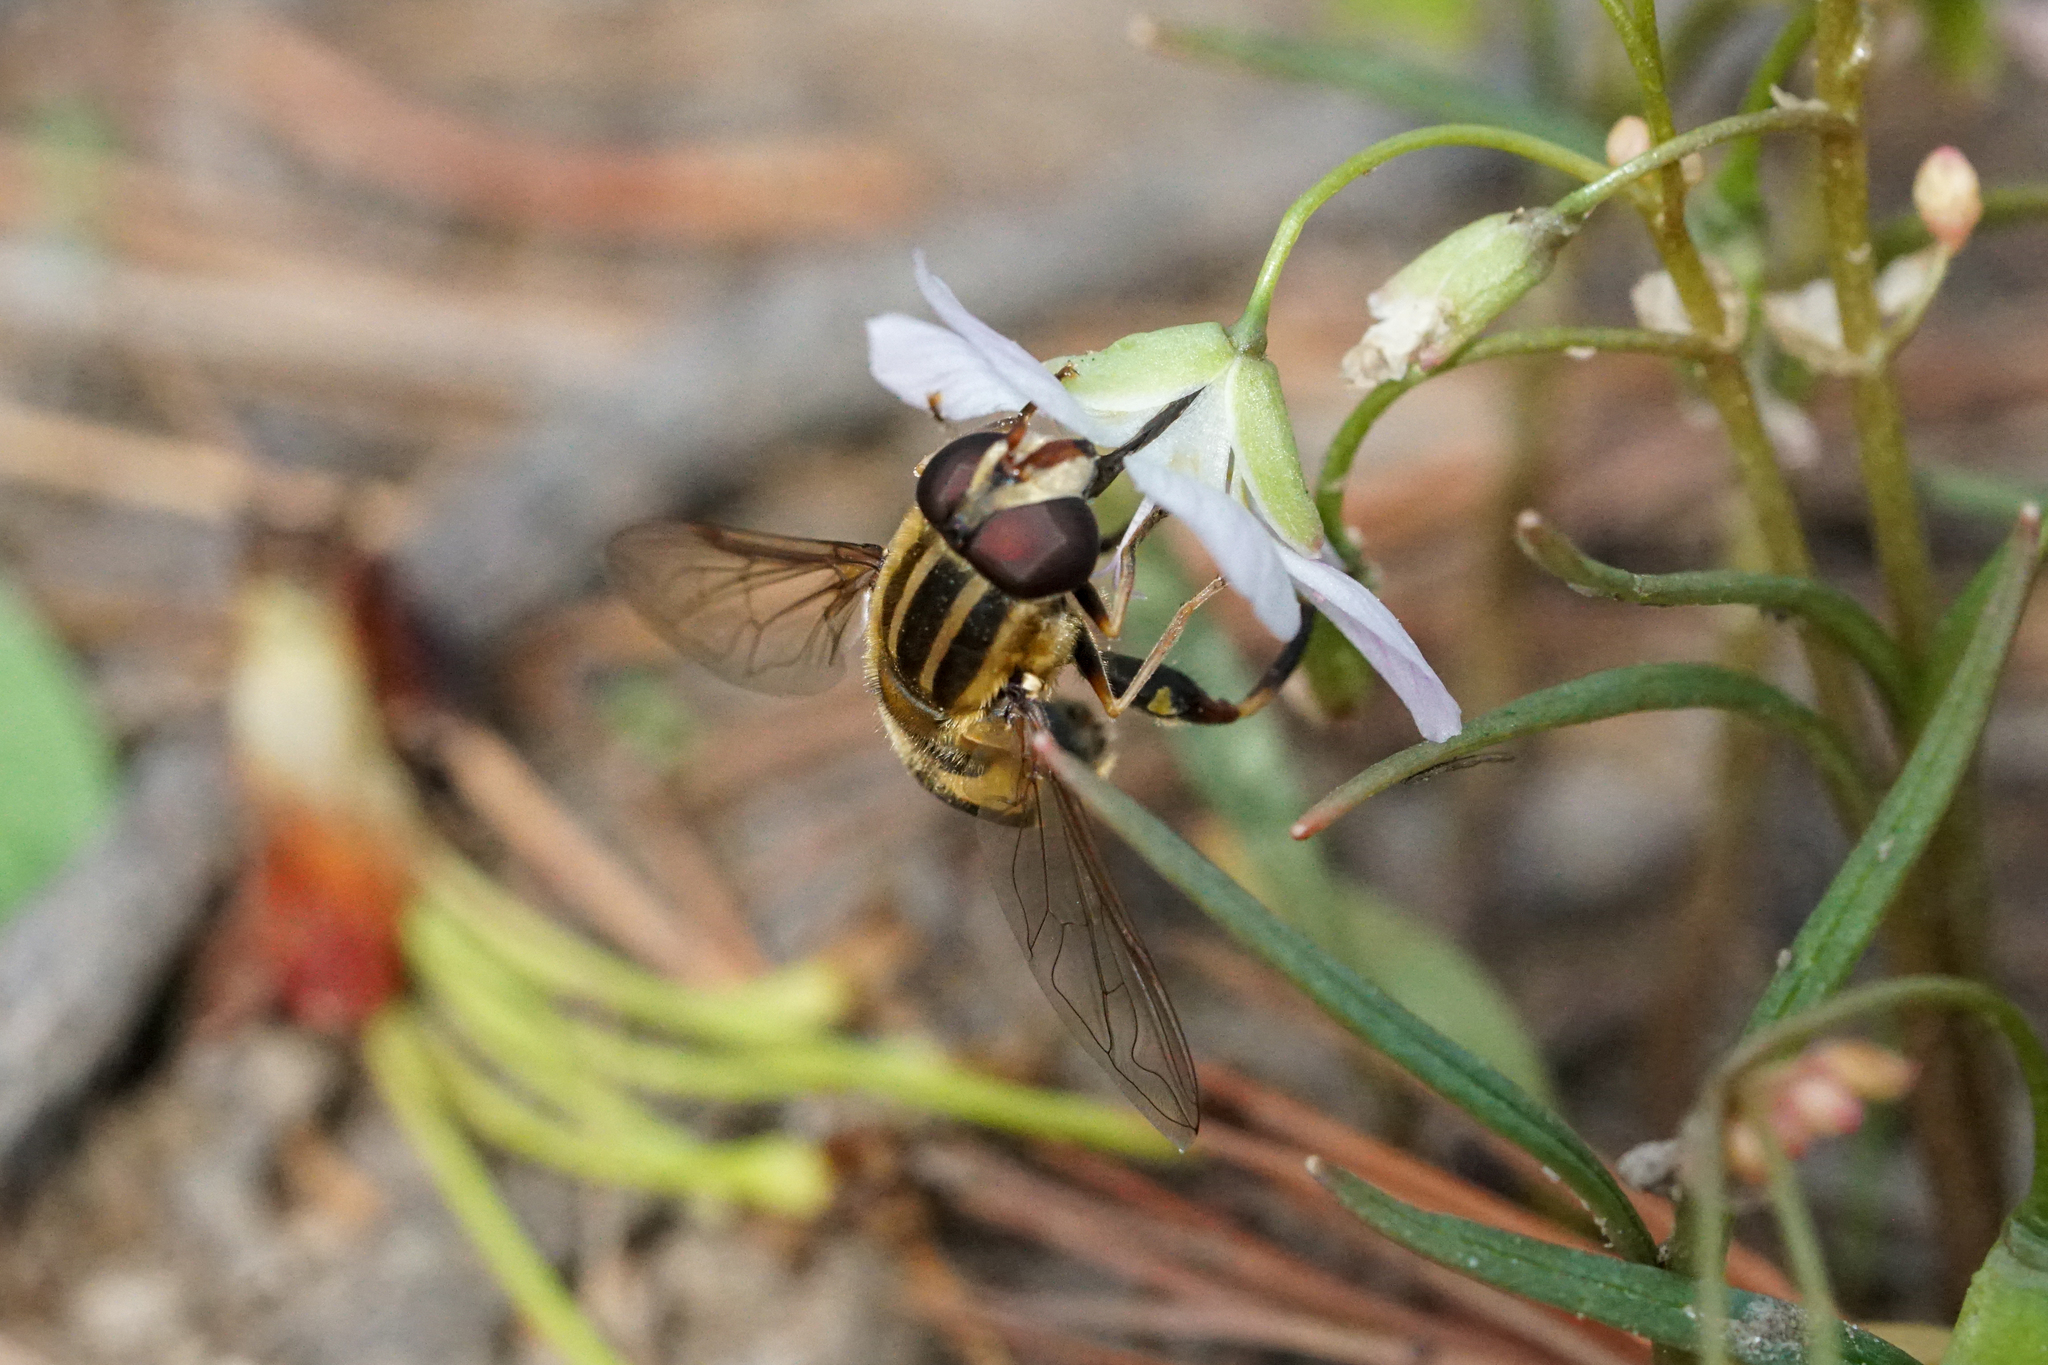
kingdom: Animalia
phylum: Arthropoda
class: Insecta
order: Diptera
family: Syrphidae
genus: Helophilus
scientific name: Helophilus fasciatus
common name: Narrow-headed marsh fly
